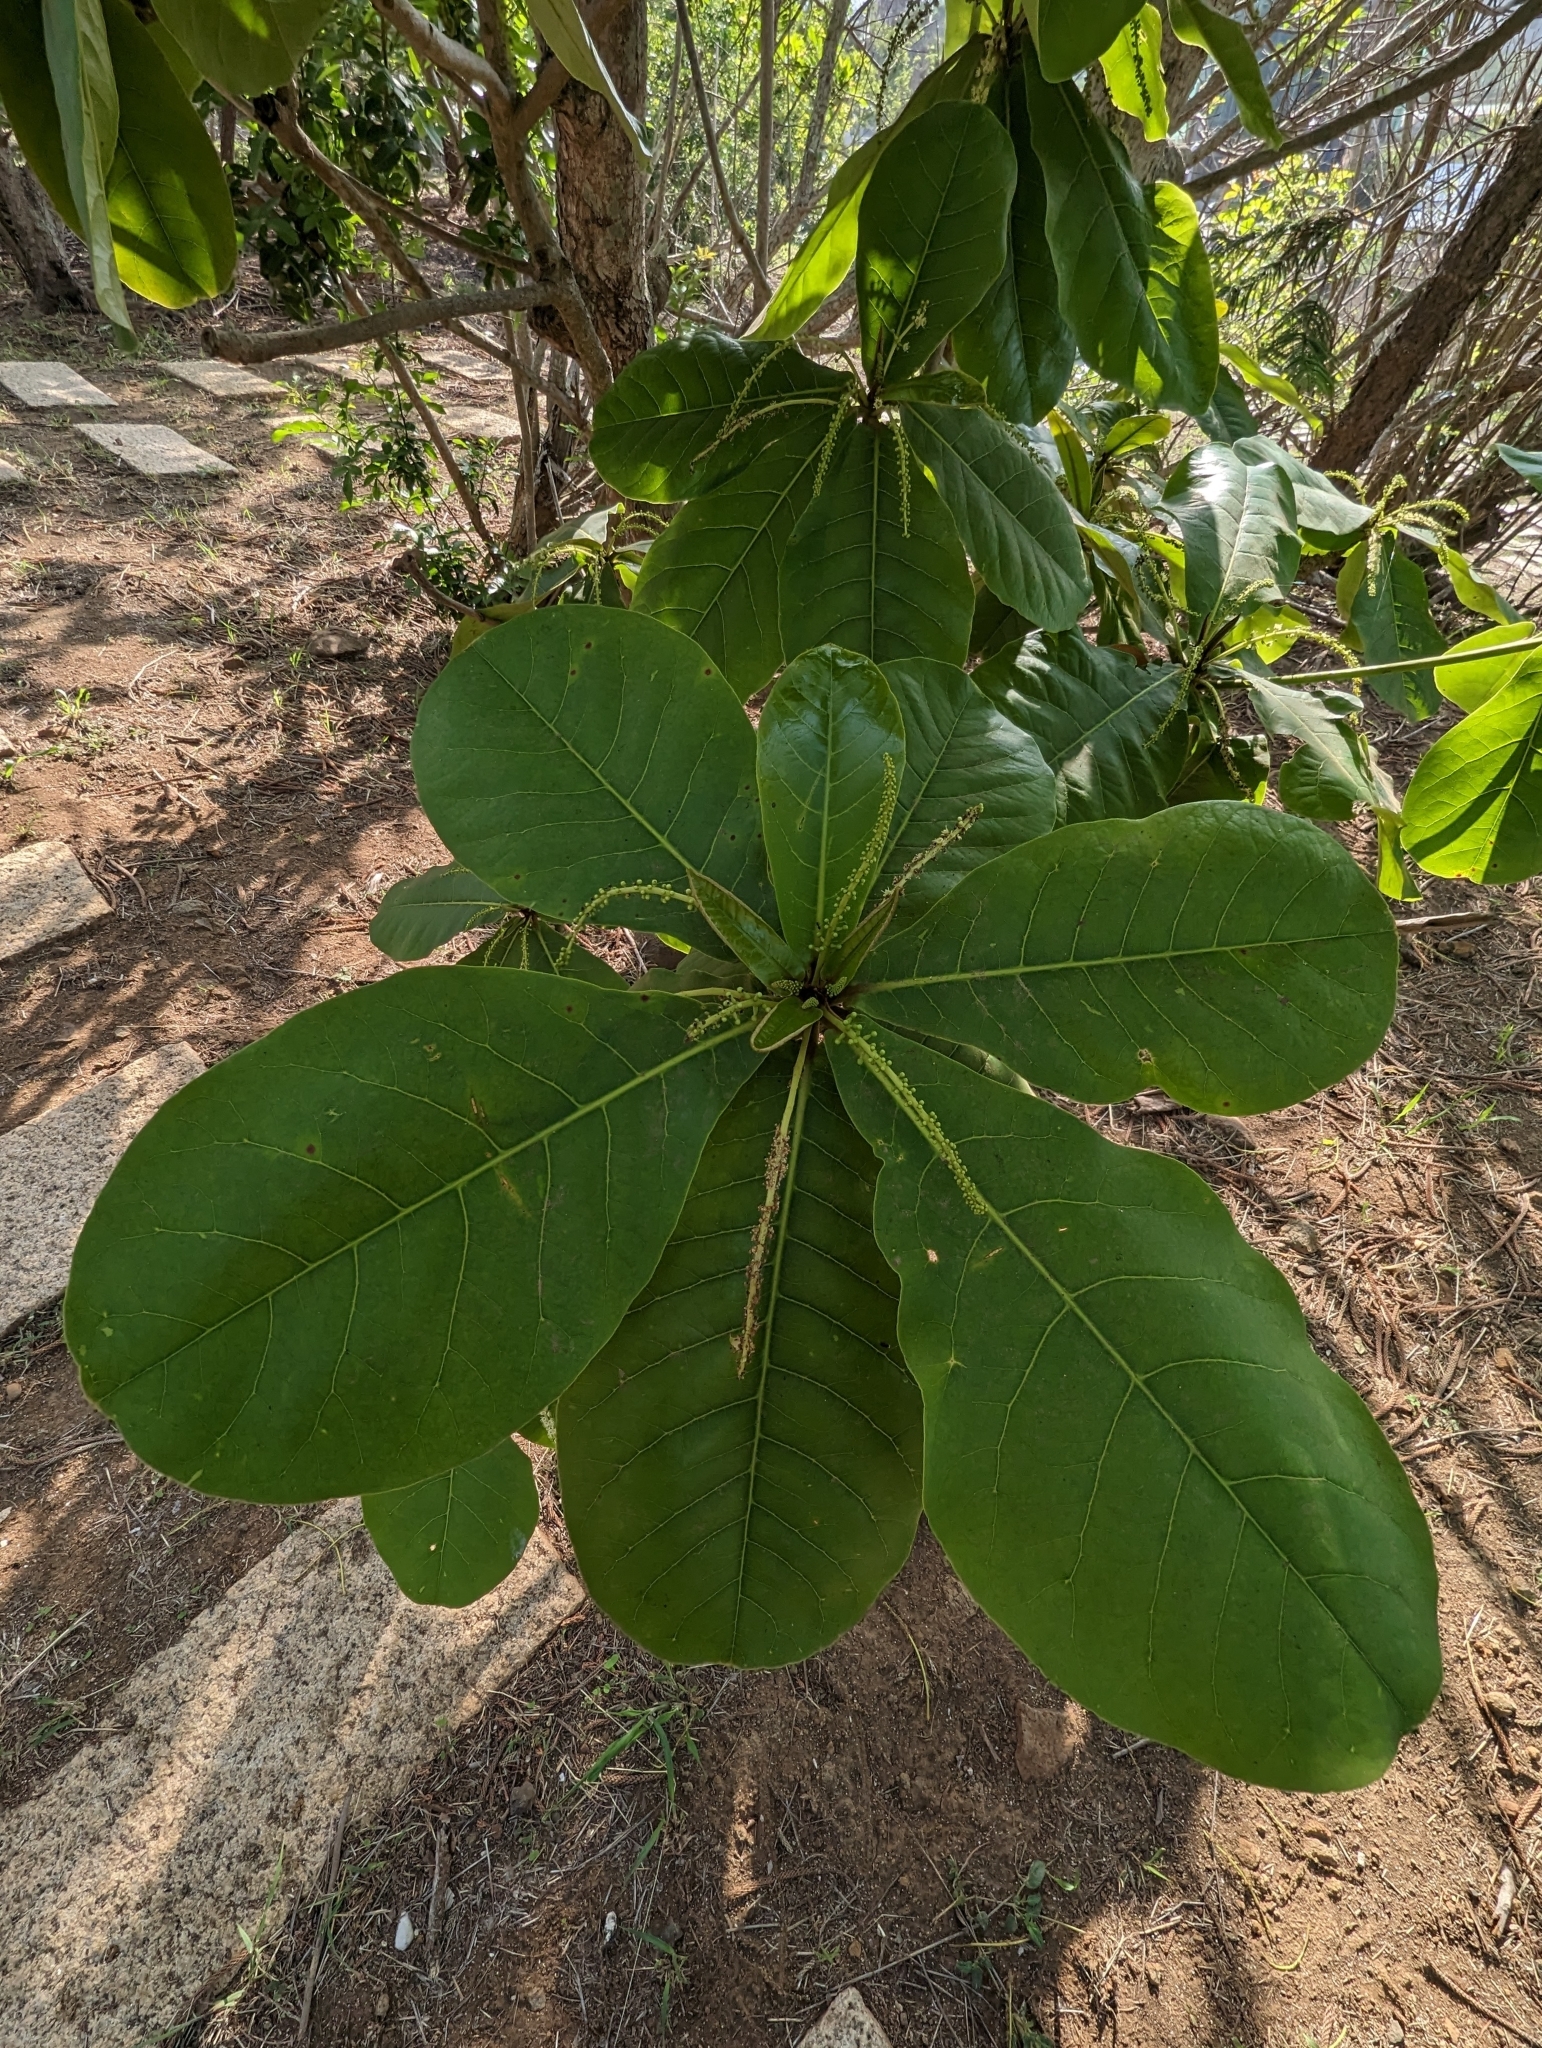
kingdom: Plantae
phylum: Tracheophyta
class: Magnoliopsida
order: Myrtales
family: Combretaceae
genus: Terminalia
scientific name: Terminalia catappa
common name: Tropical almond
